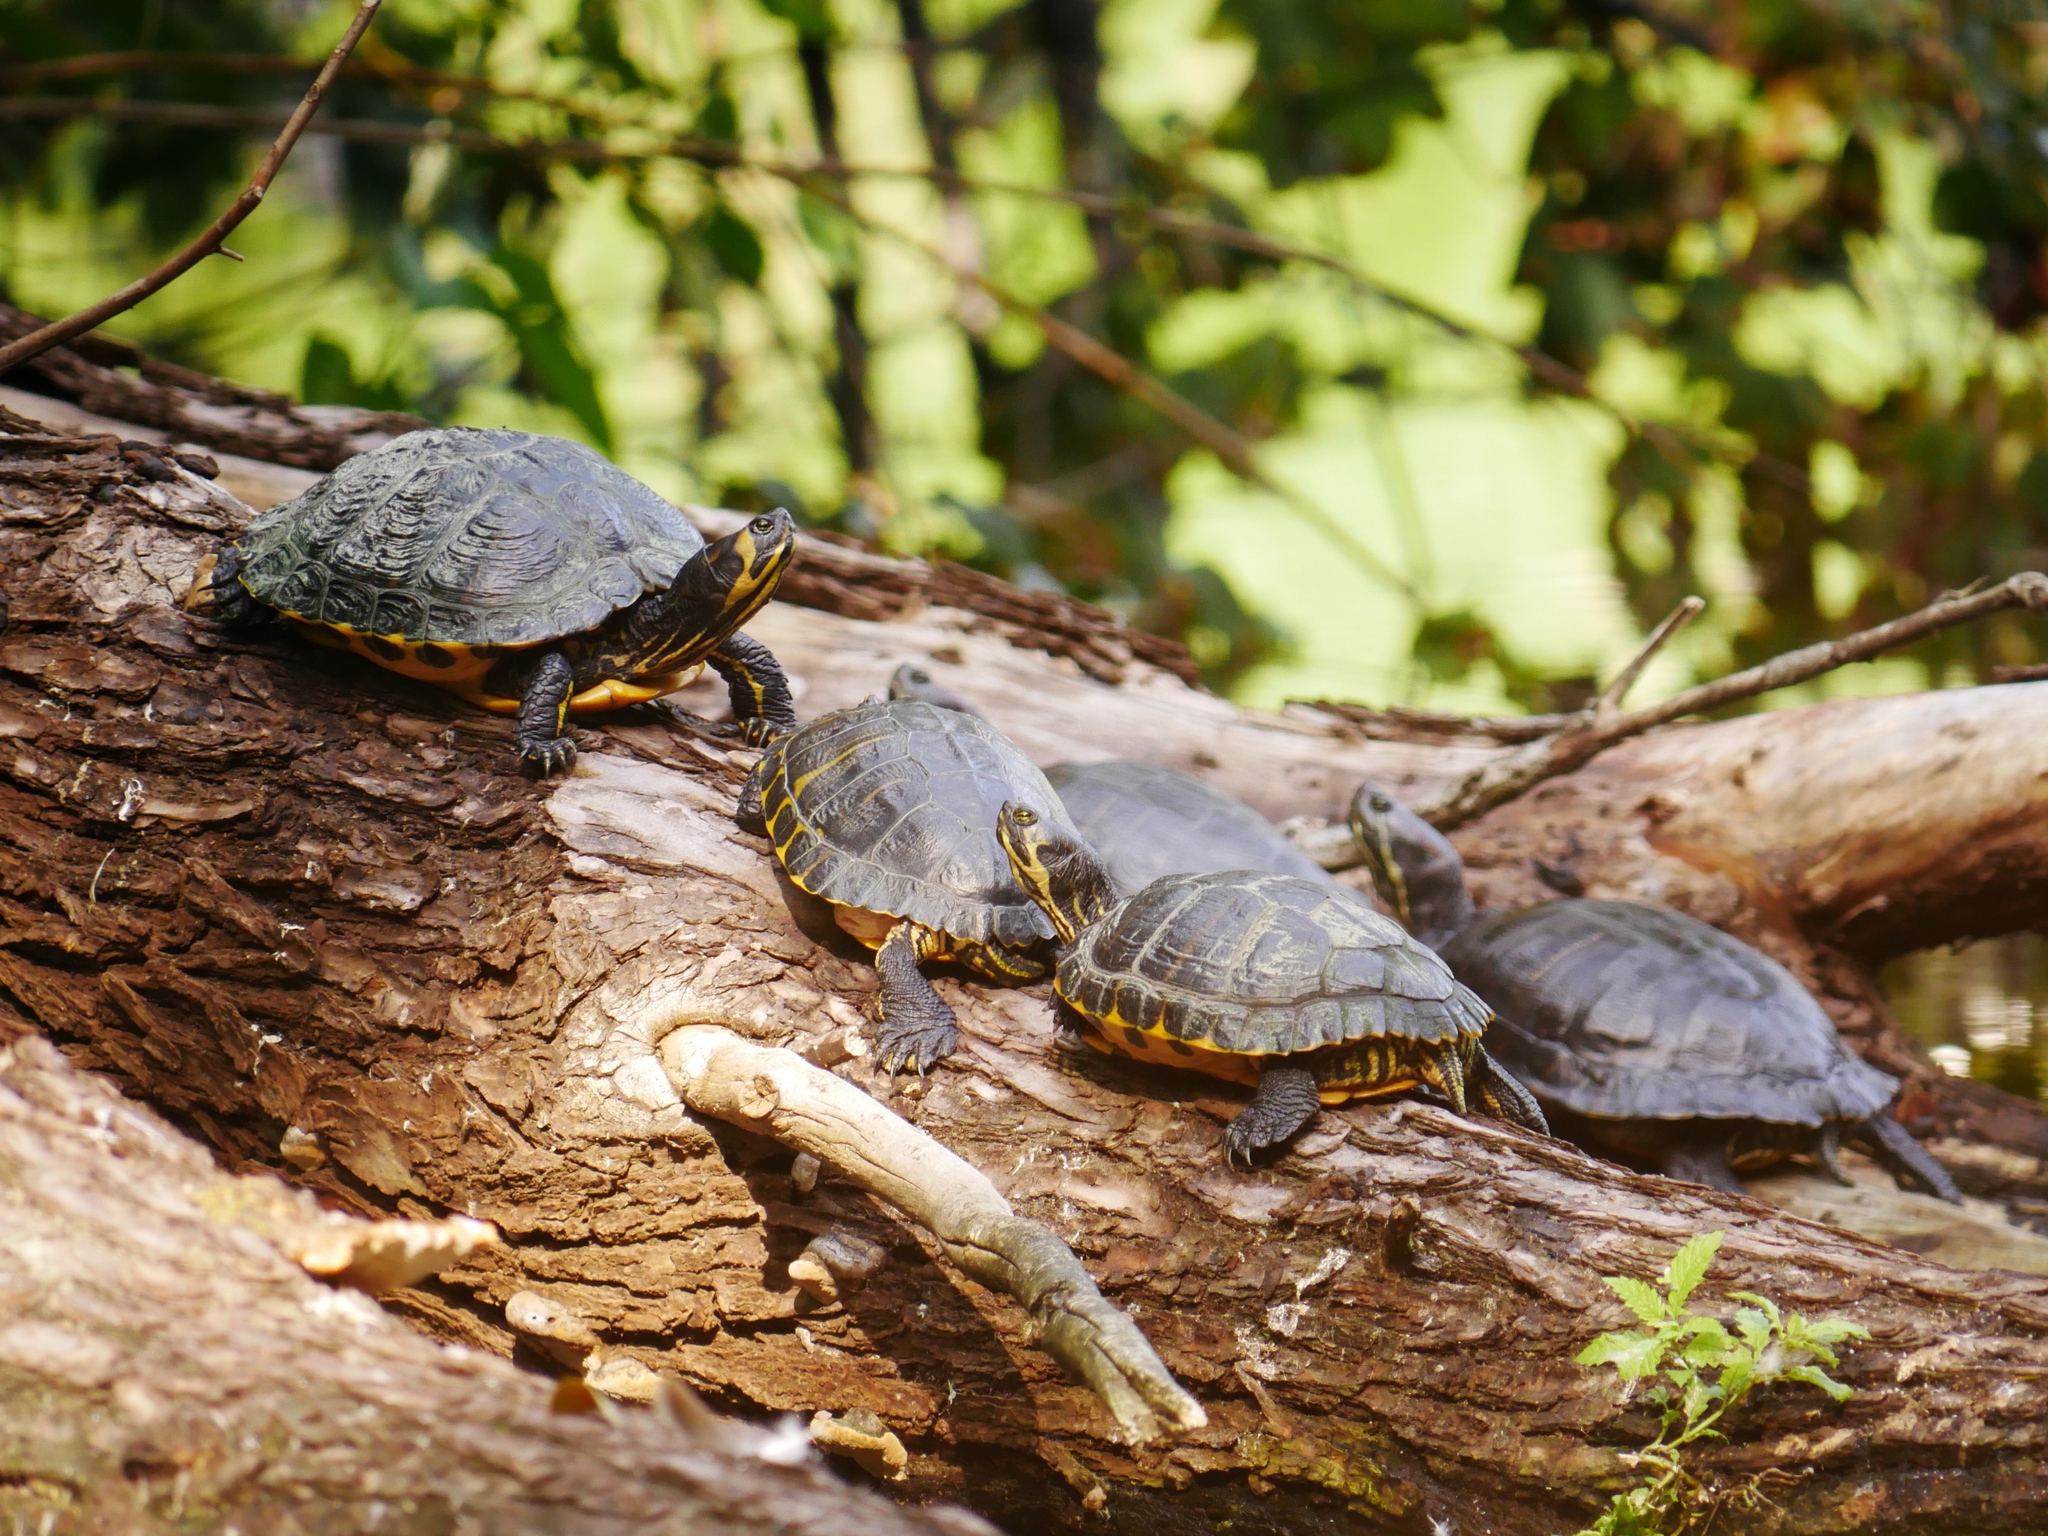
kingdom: Animalia
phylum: Chordata
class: Testudines
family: Emydidae
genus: Trachemys
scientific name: Trachemys scripta
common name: Slider
